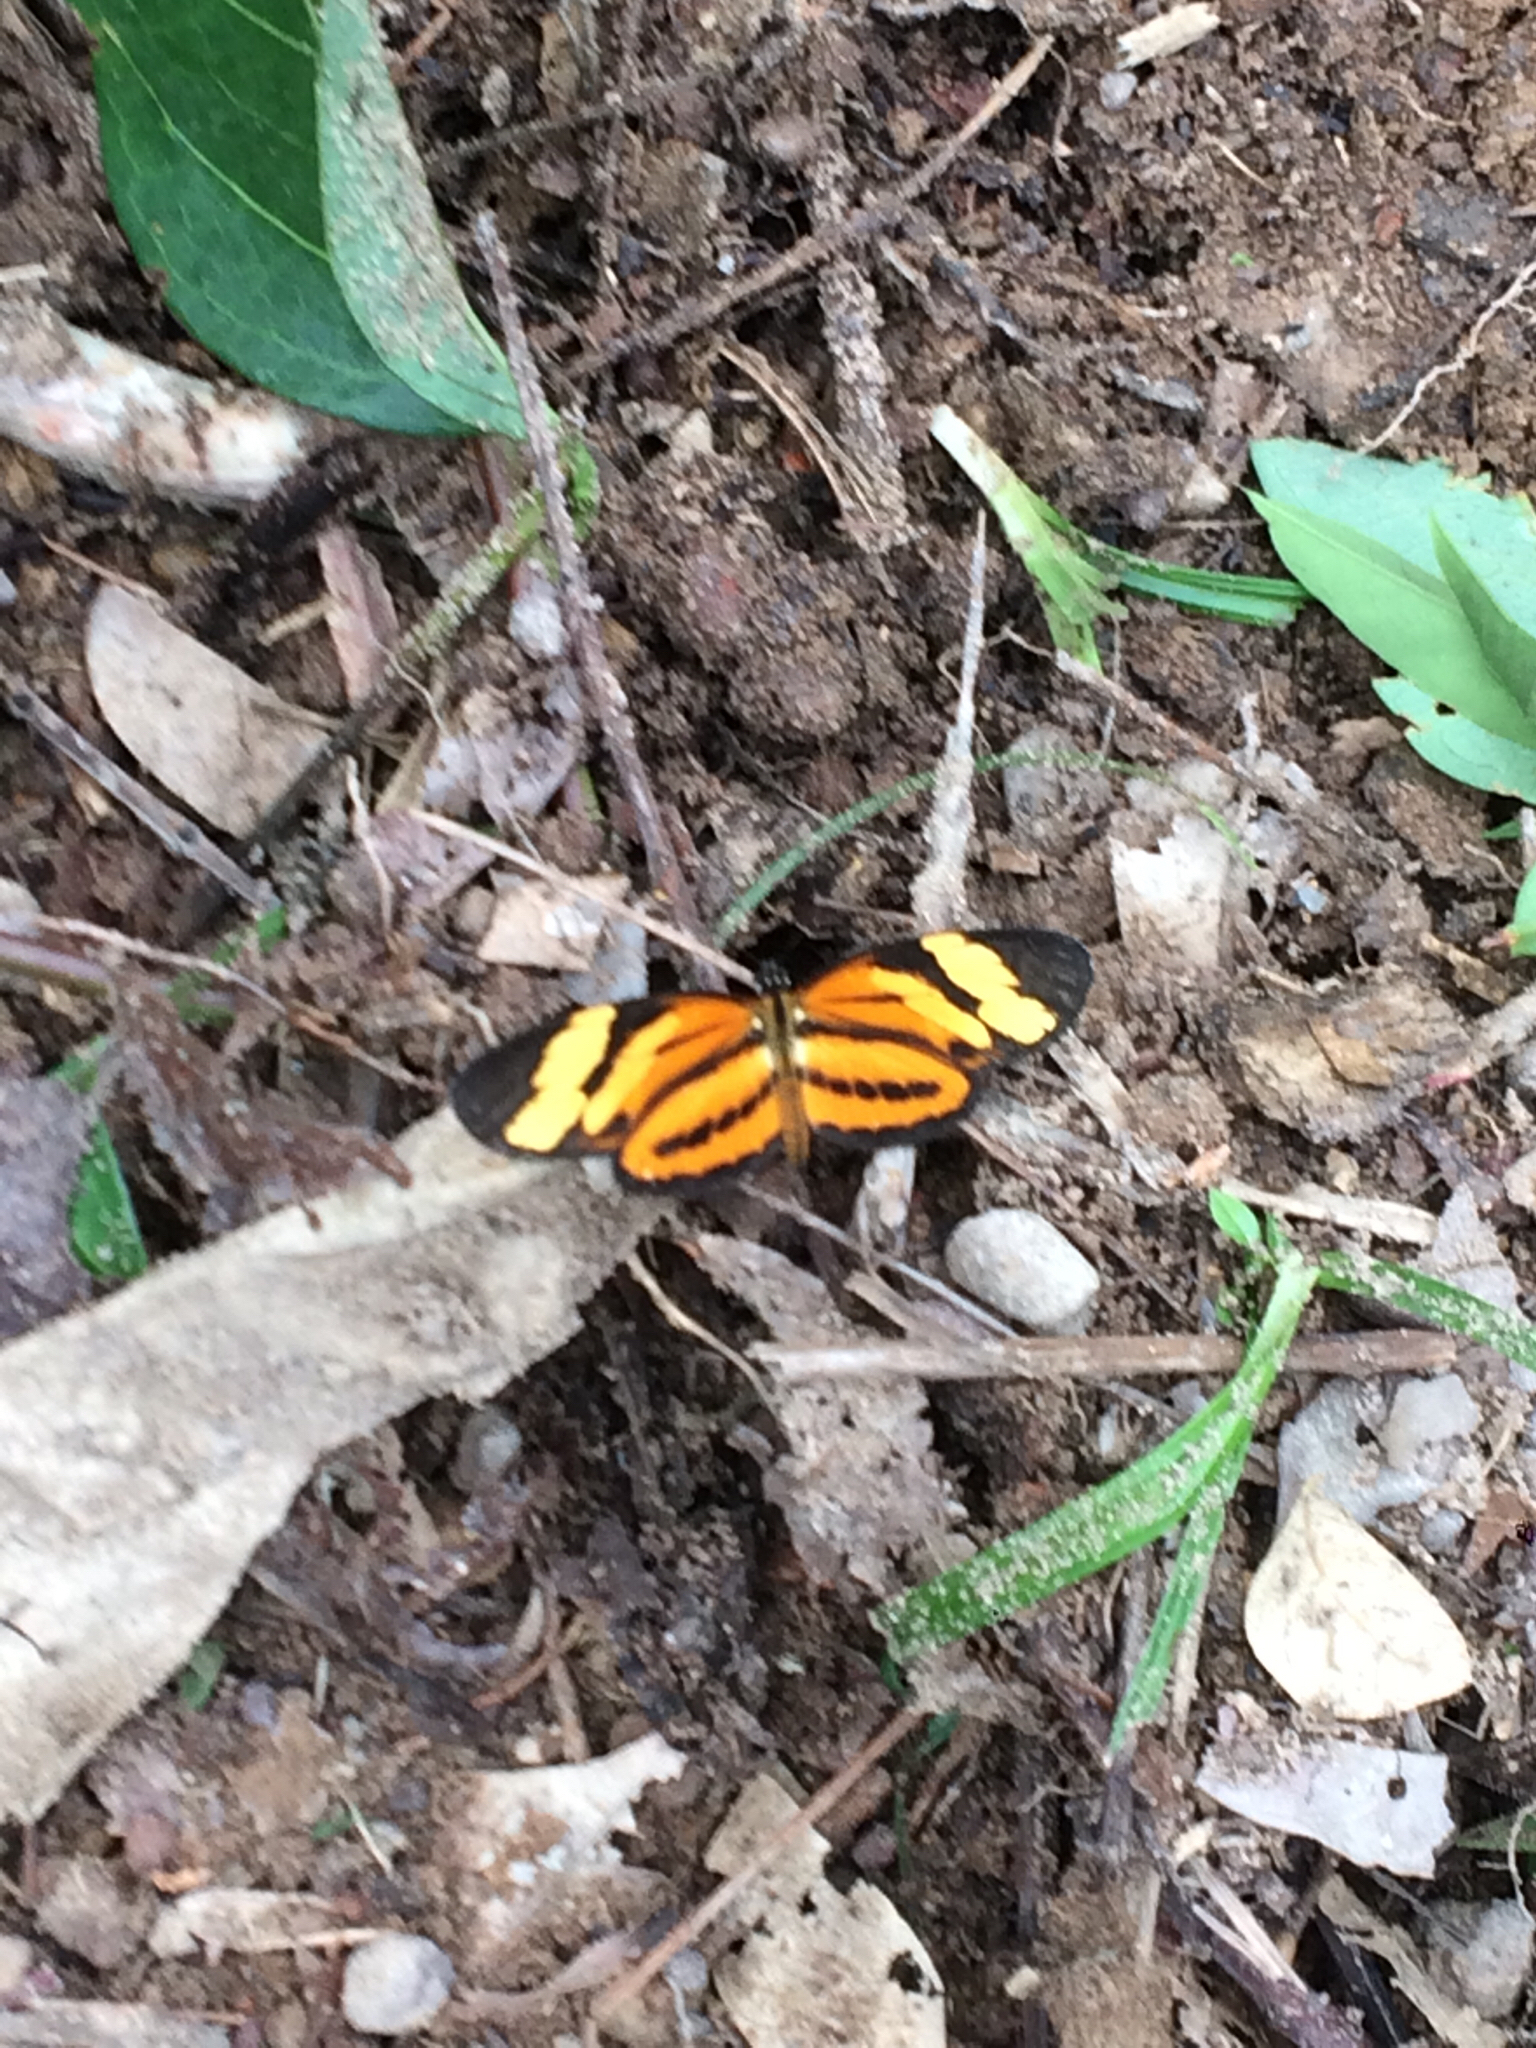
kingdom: Animalia
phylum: Arthropoda
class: Insecta
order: Lepidoptera
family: Nymphalidae
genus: Eresia
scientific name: Eresia eunice
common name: Tiger crescent
